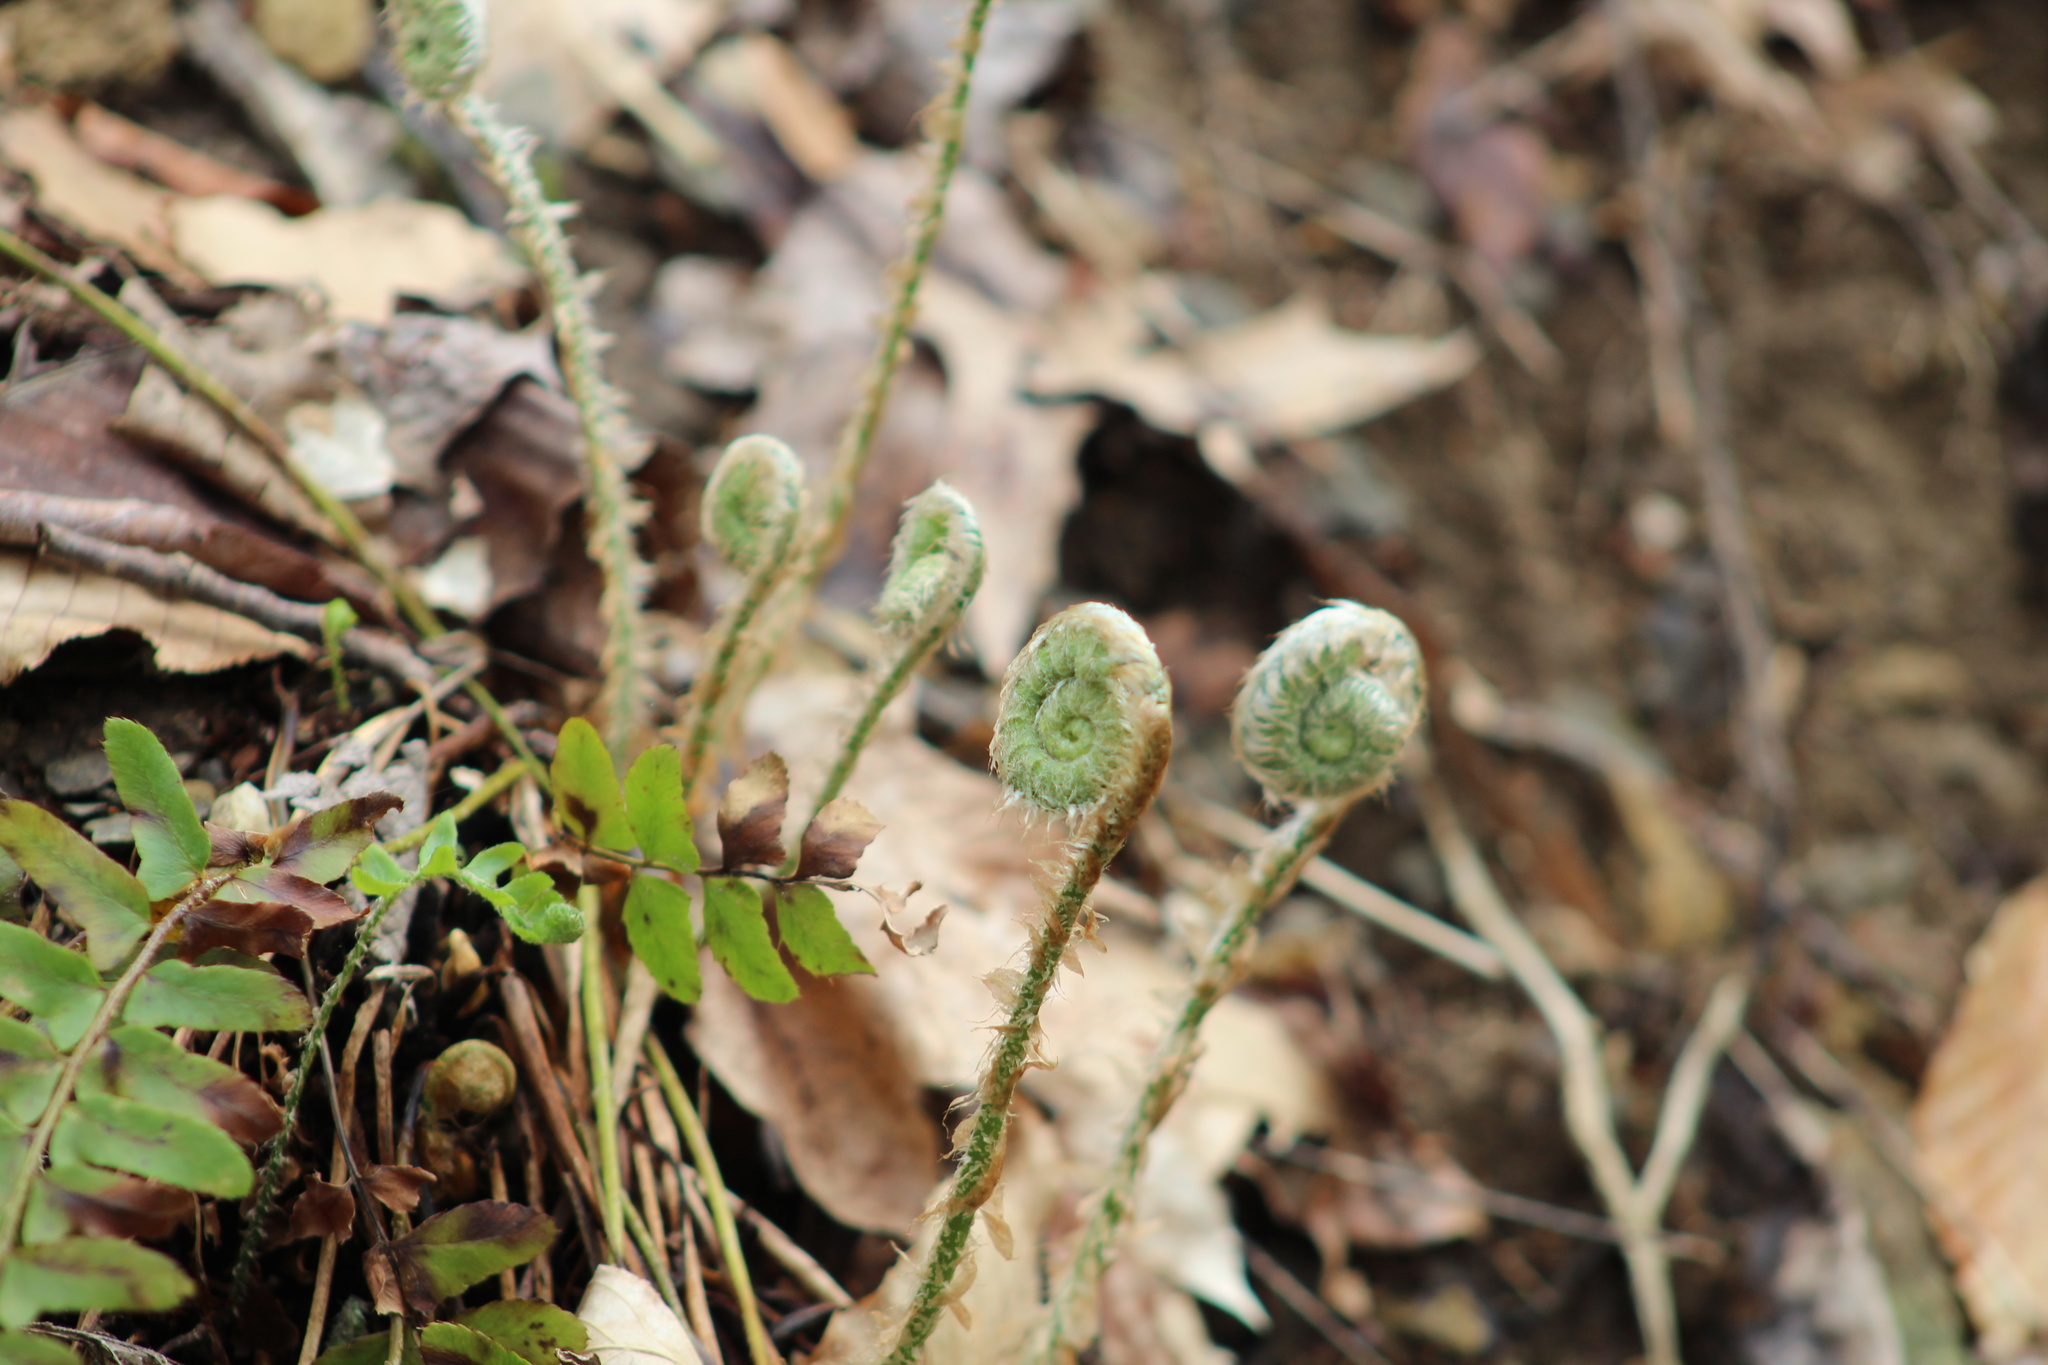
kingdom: Plantae
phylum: Tracheophyta
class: Polypodiopsida
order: Polypodiales
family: Dryopteridaceae
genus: Polystichum
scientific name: Polystichum acrostichoides
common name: Christmas fern
